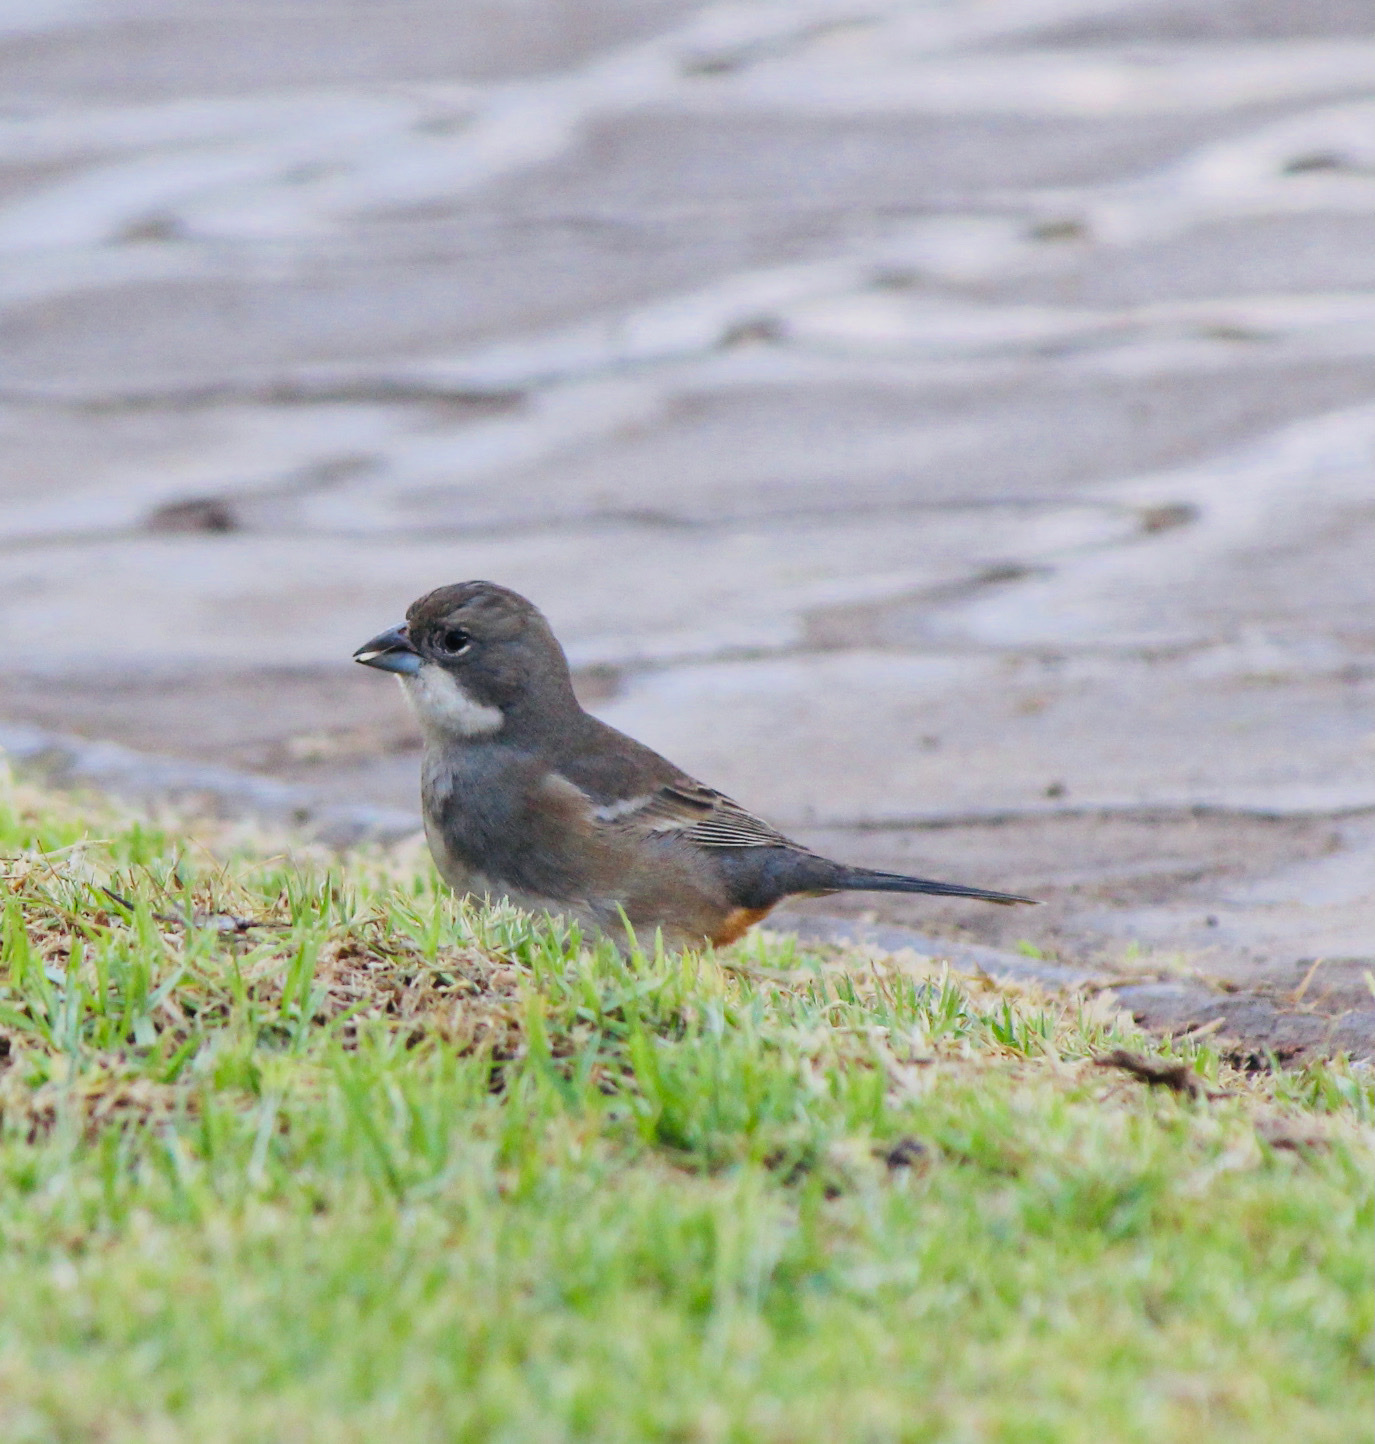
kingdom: Animalia
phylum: Chordata
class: Aves
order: Passeriformes
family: Thraupidae
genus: Diuca
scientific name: Diuca diuca
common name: Common diuca finch
